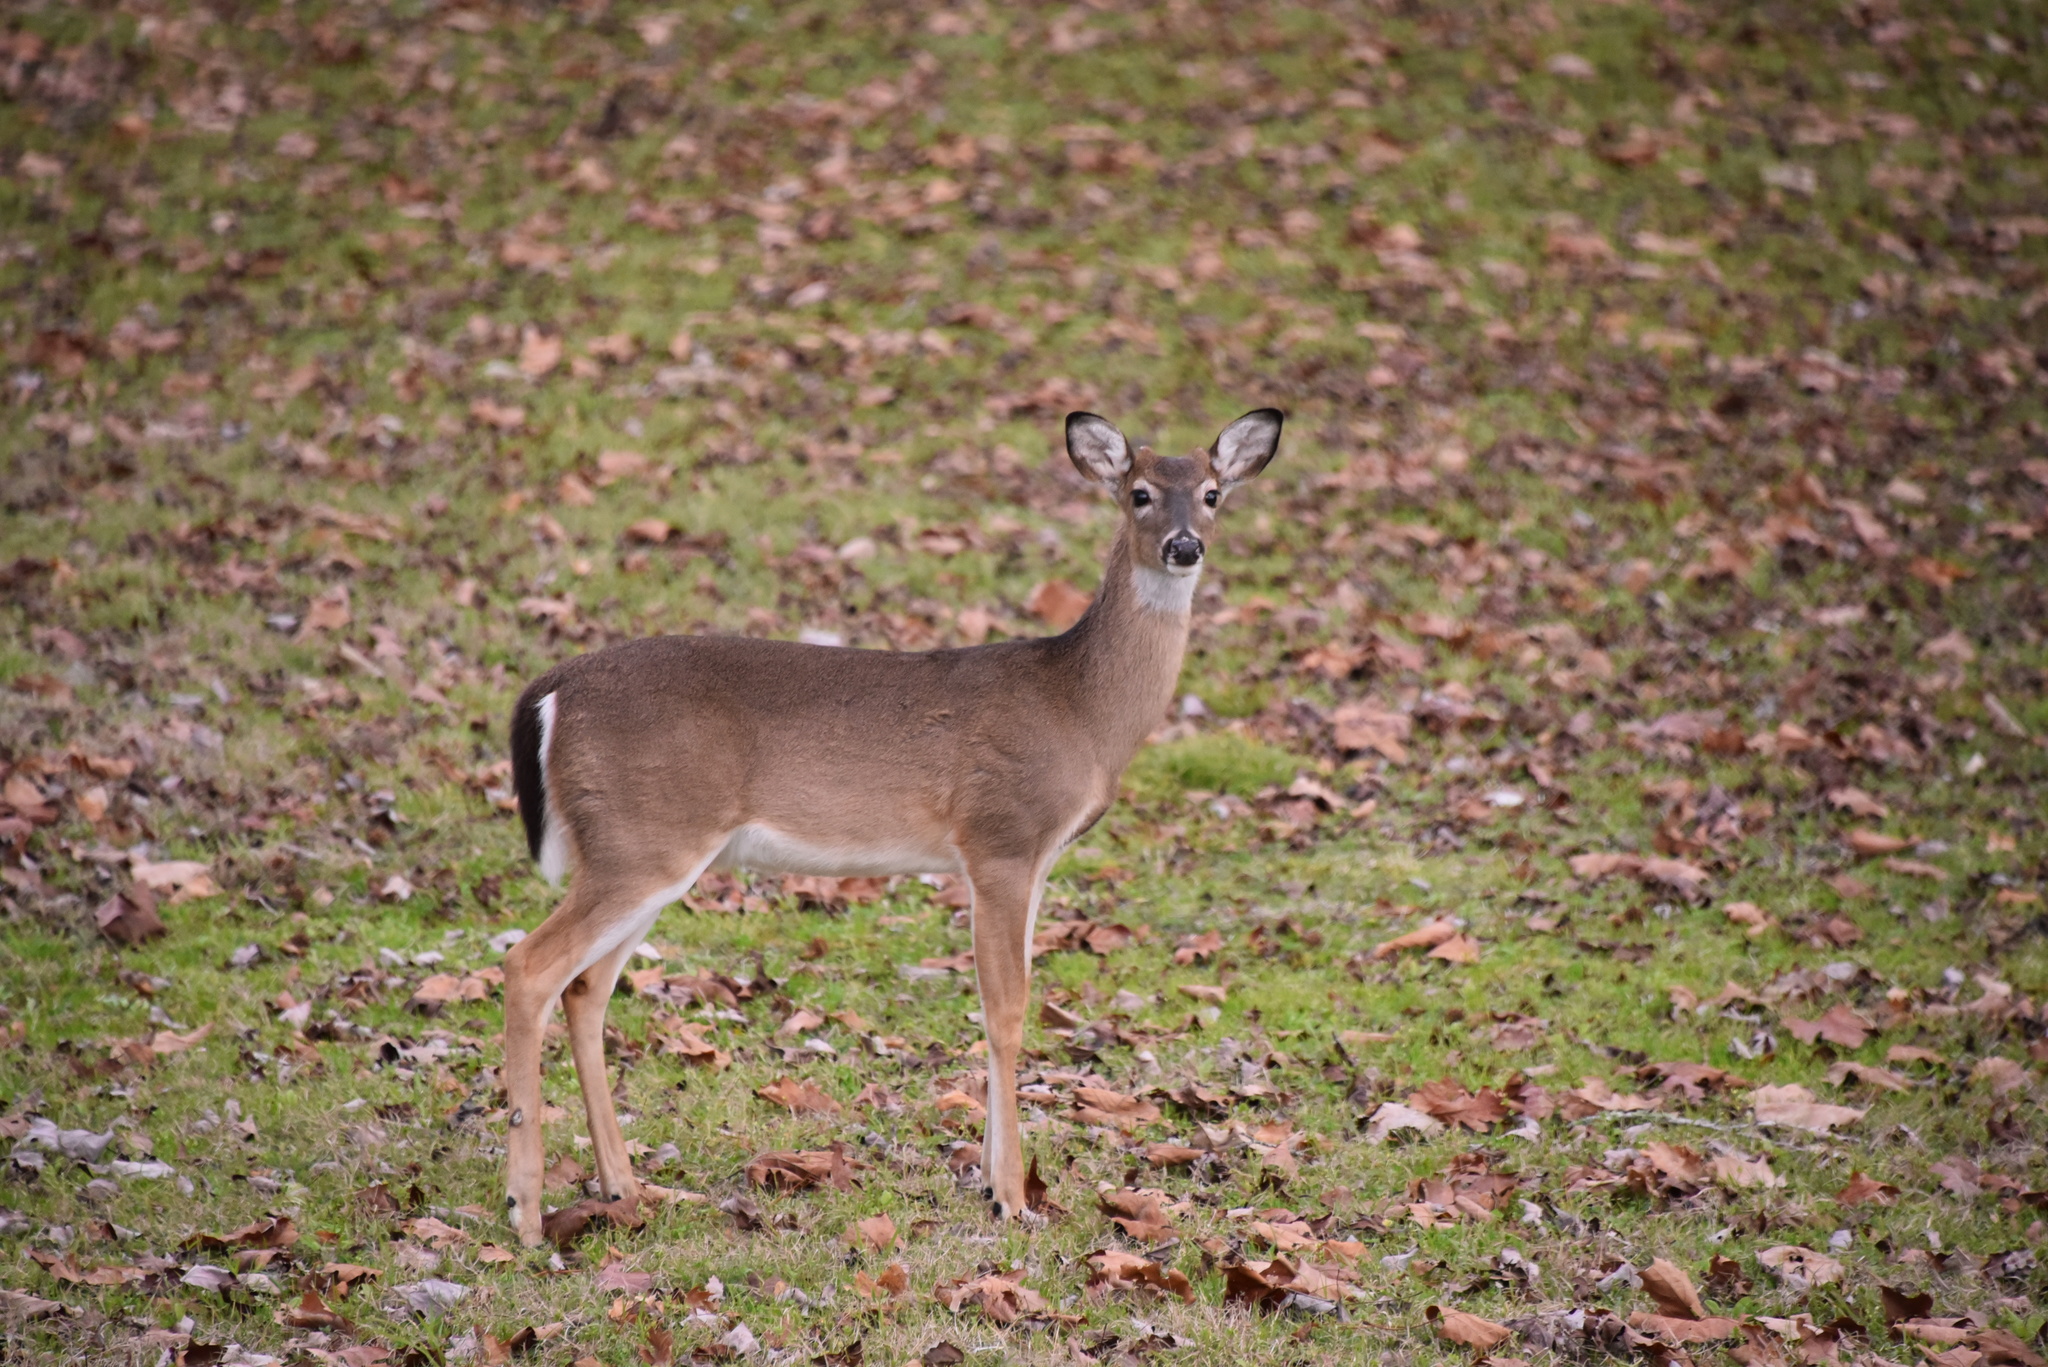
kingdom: Animalia
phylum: Chordata
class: Mammalia
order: Artiodactyla
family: Cervidae
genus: Odocoileus
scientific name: Odocoileus virginianus
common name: White-tailed deer
